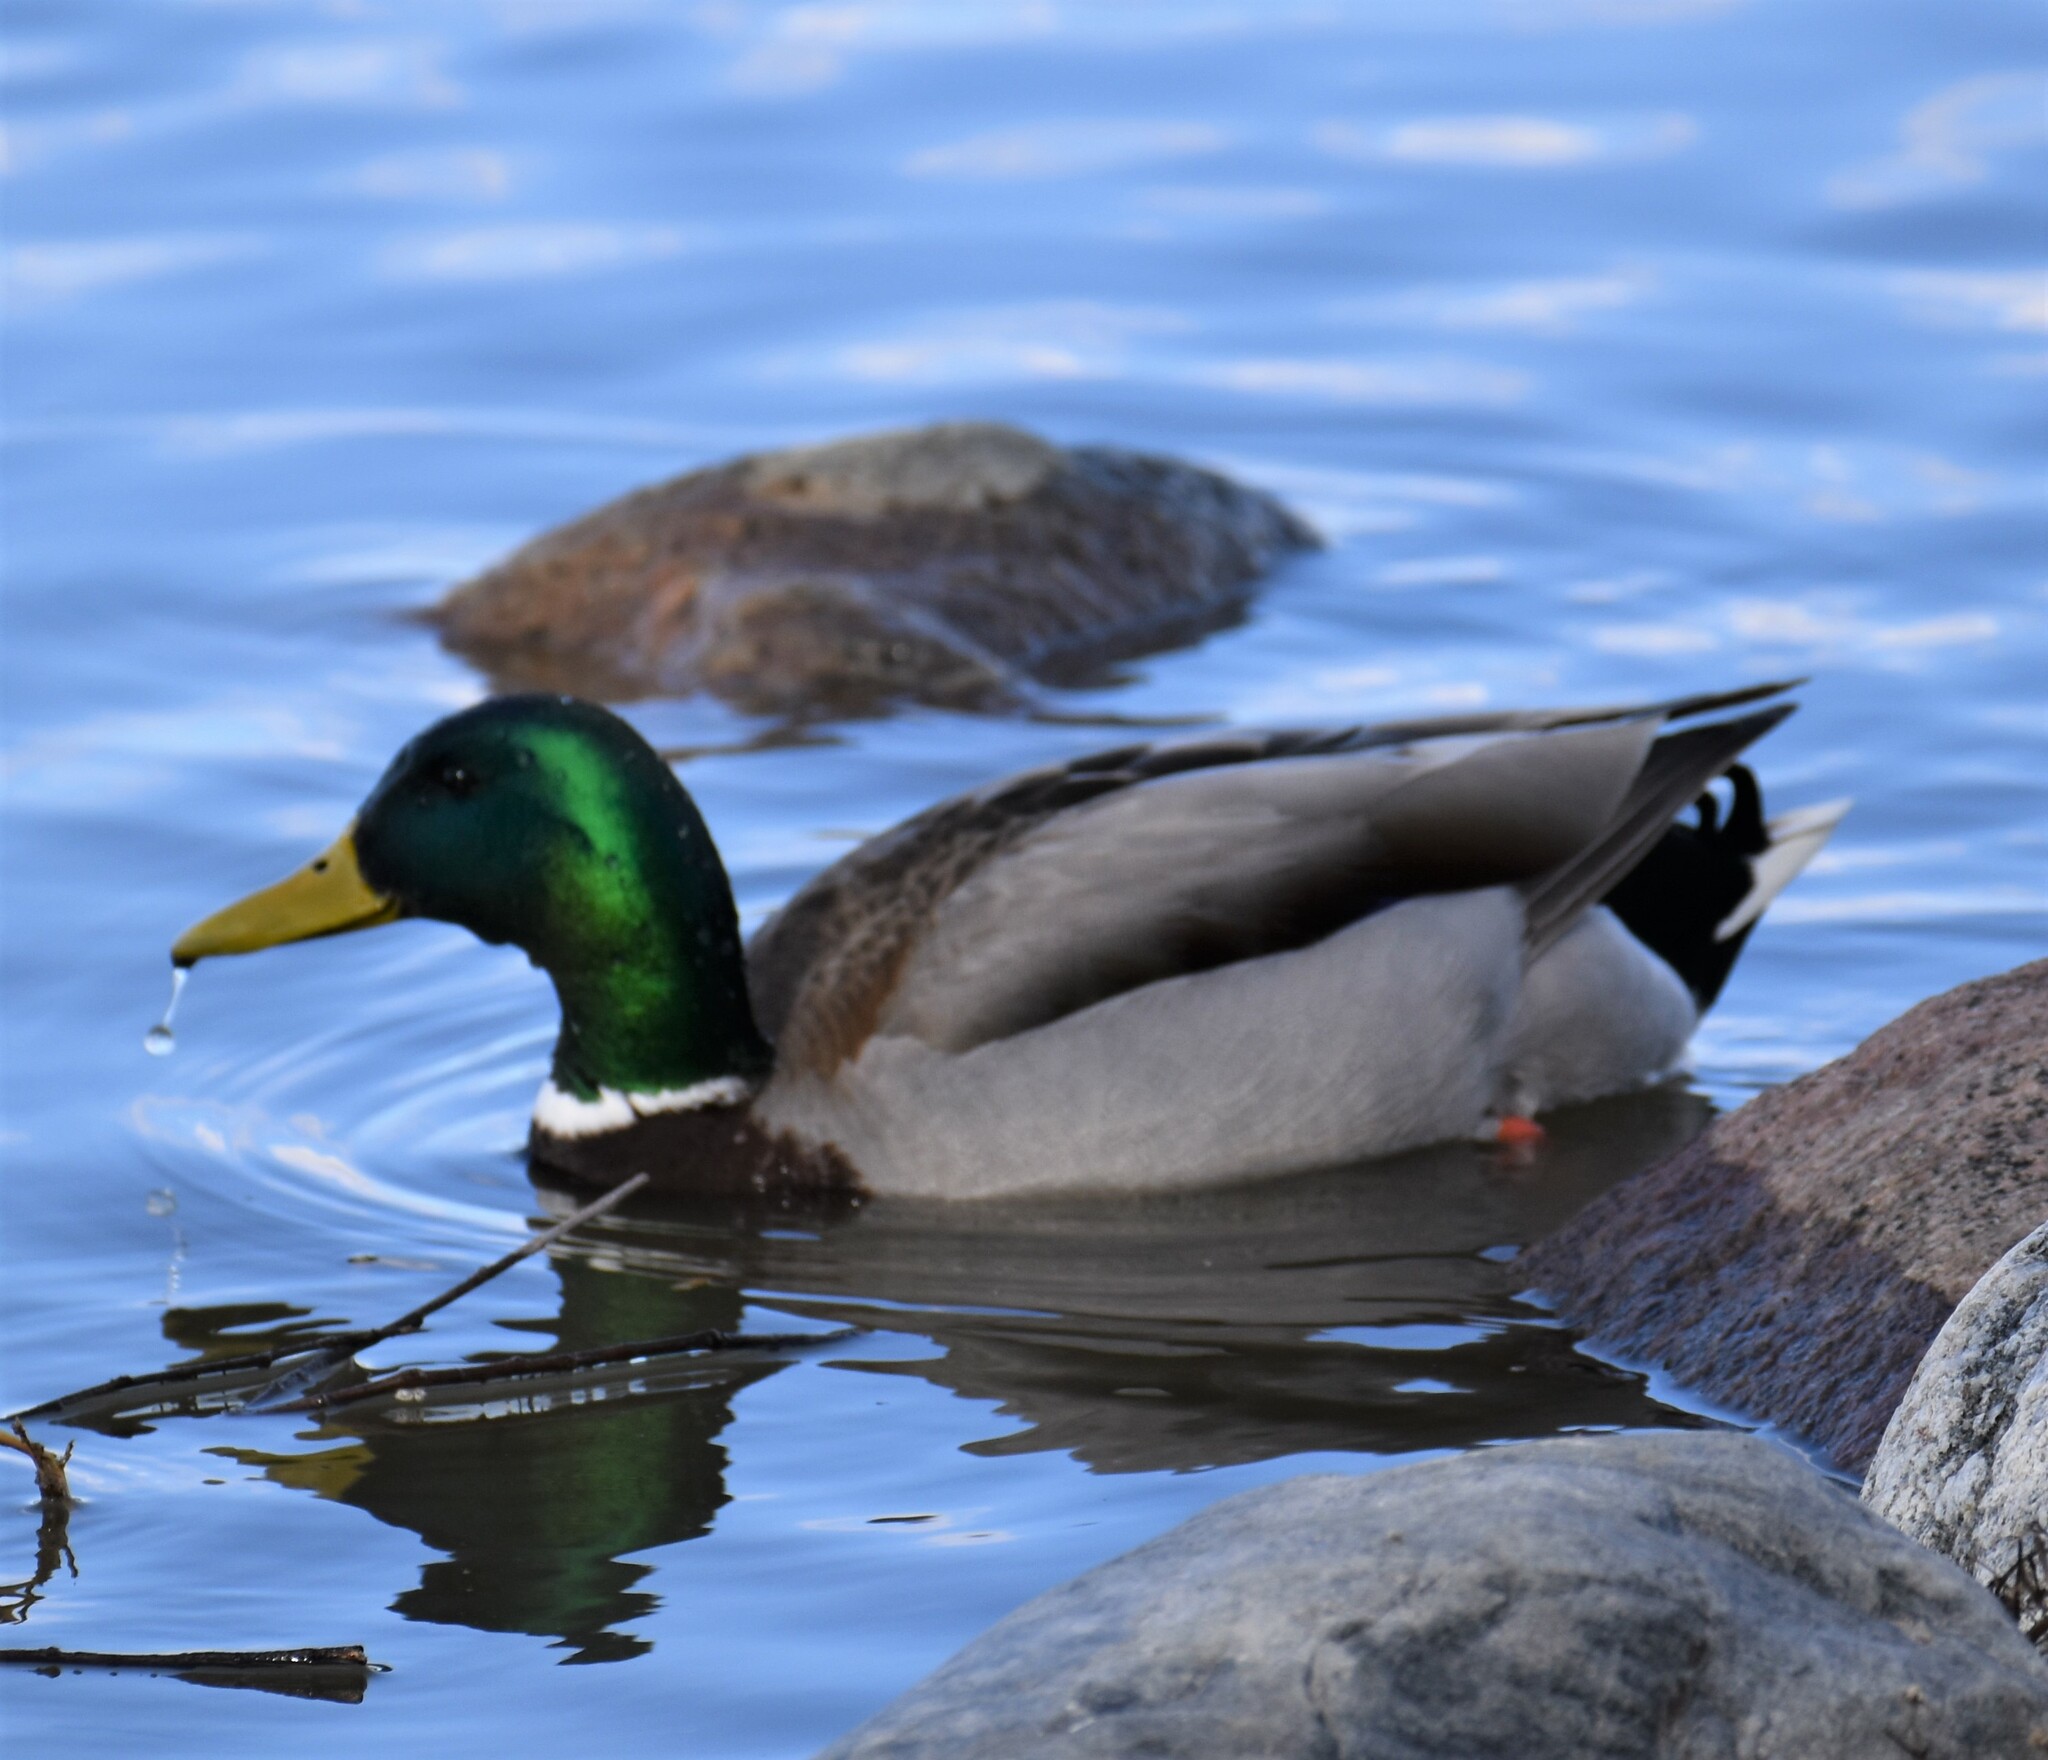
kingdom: Animalia
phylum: Chordata
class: Aves
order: Anseriformes
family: Anatidae
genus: Anas
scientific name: Anas platyrhynchos
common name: Mallard
